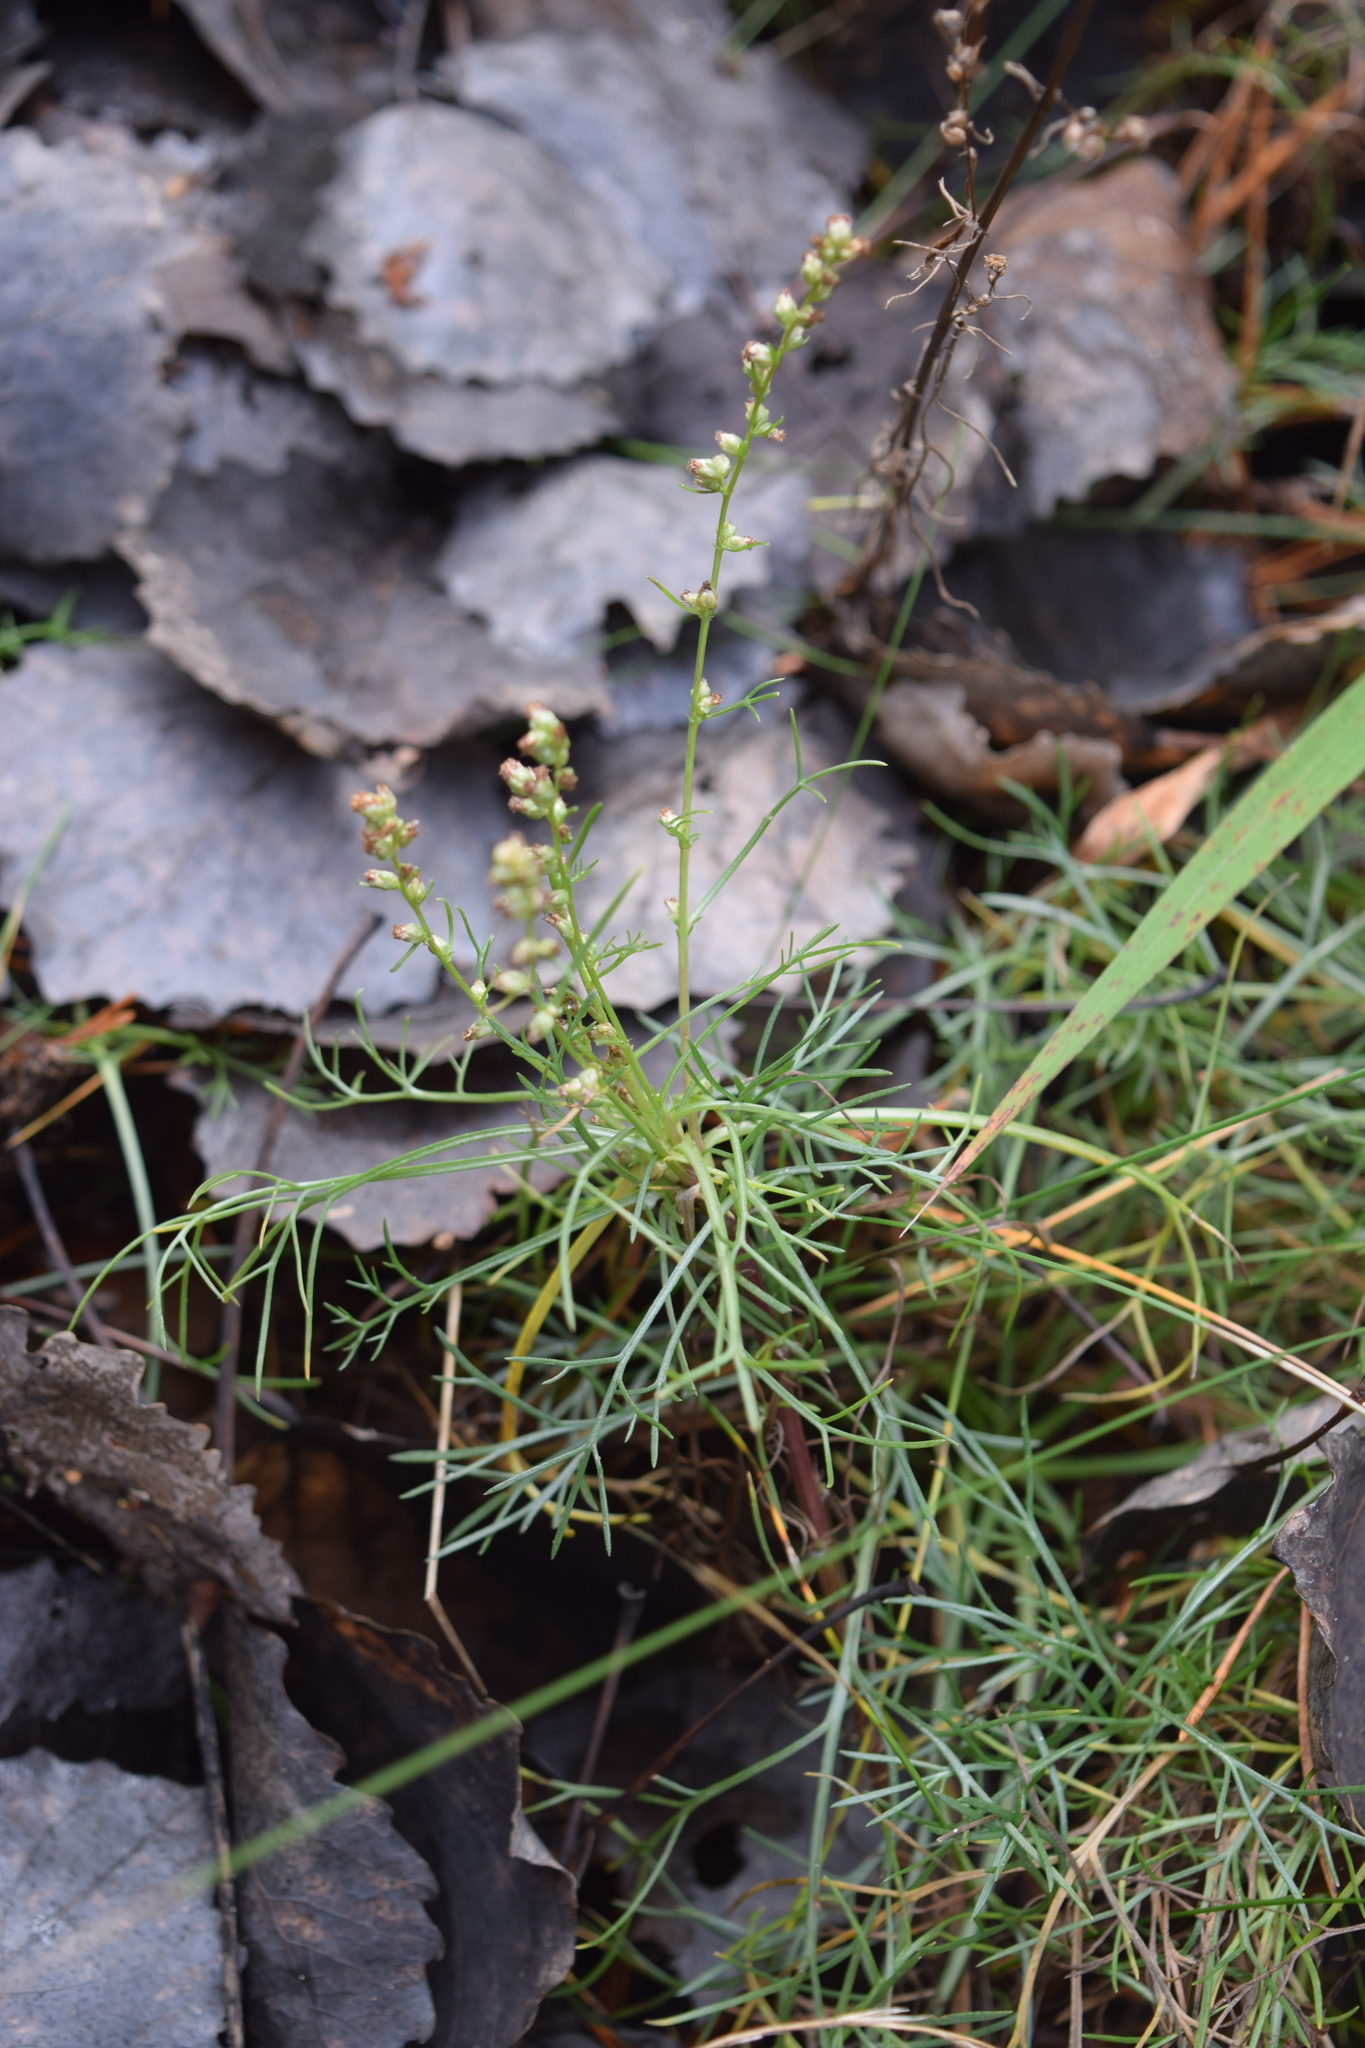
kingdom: Plantae
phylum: Tracheophyta
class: Magnoliopsida
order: Asterales
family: Asteraceae
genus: Artemisia
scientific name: Artemisia campestris
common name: Field wormwood
